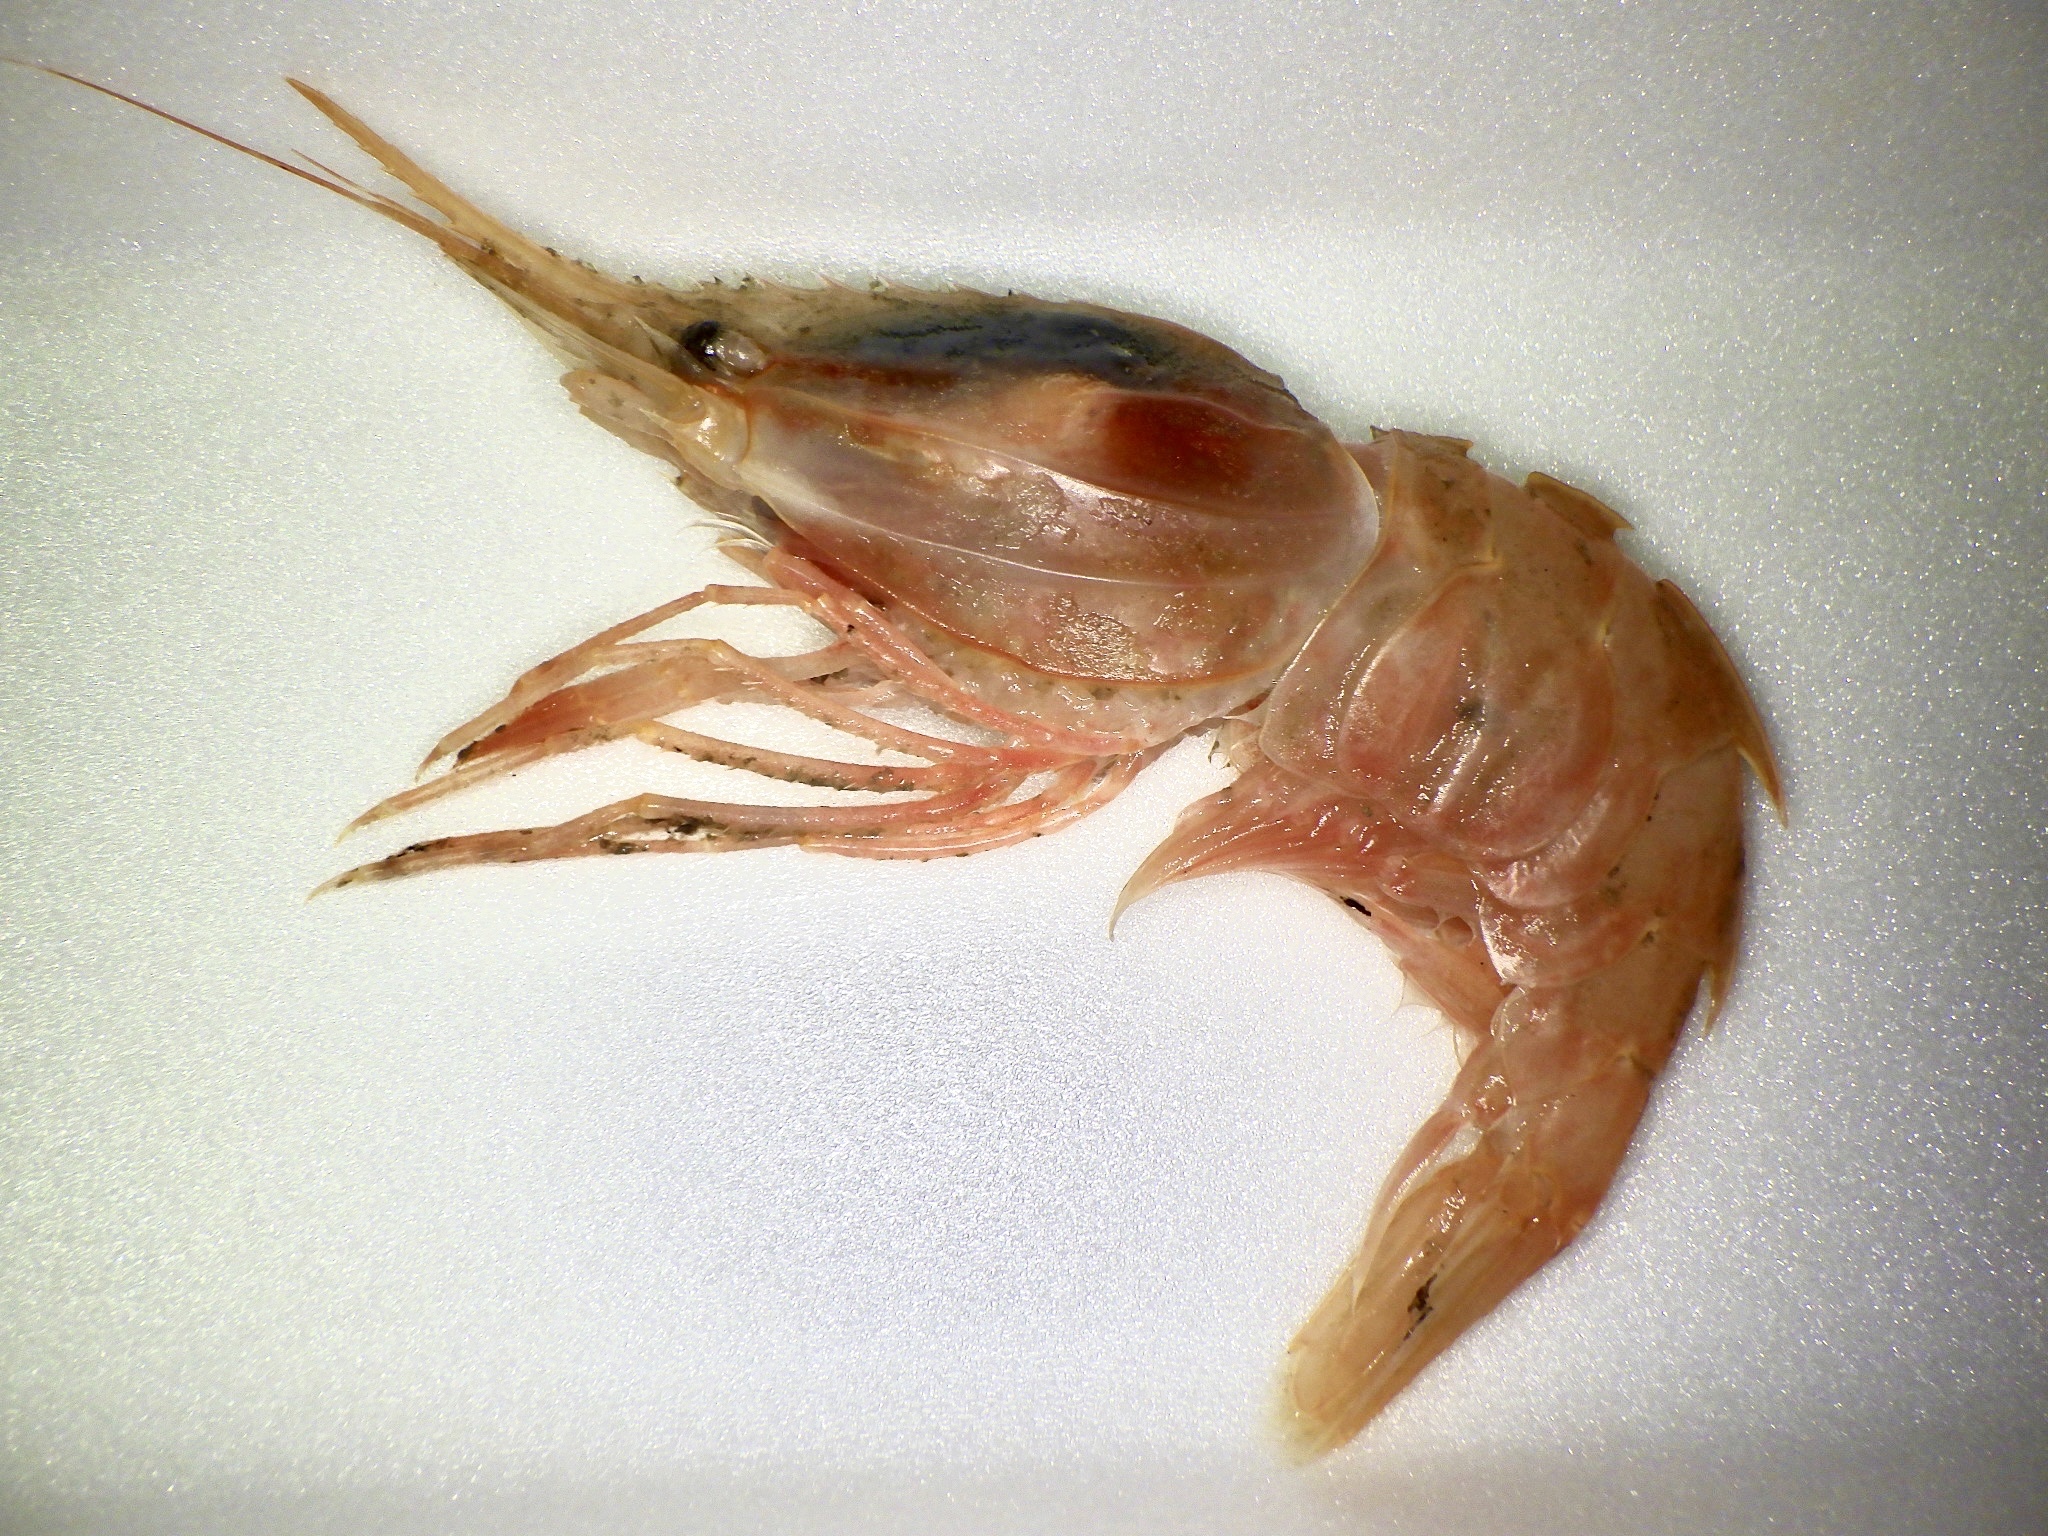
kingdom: Animalia
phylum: Arthropoda
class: Malacostraca
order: Decapoda
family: Pandalidae
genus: Heterocarpus
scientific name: Heterocarpus hayashii
